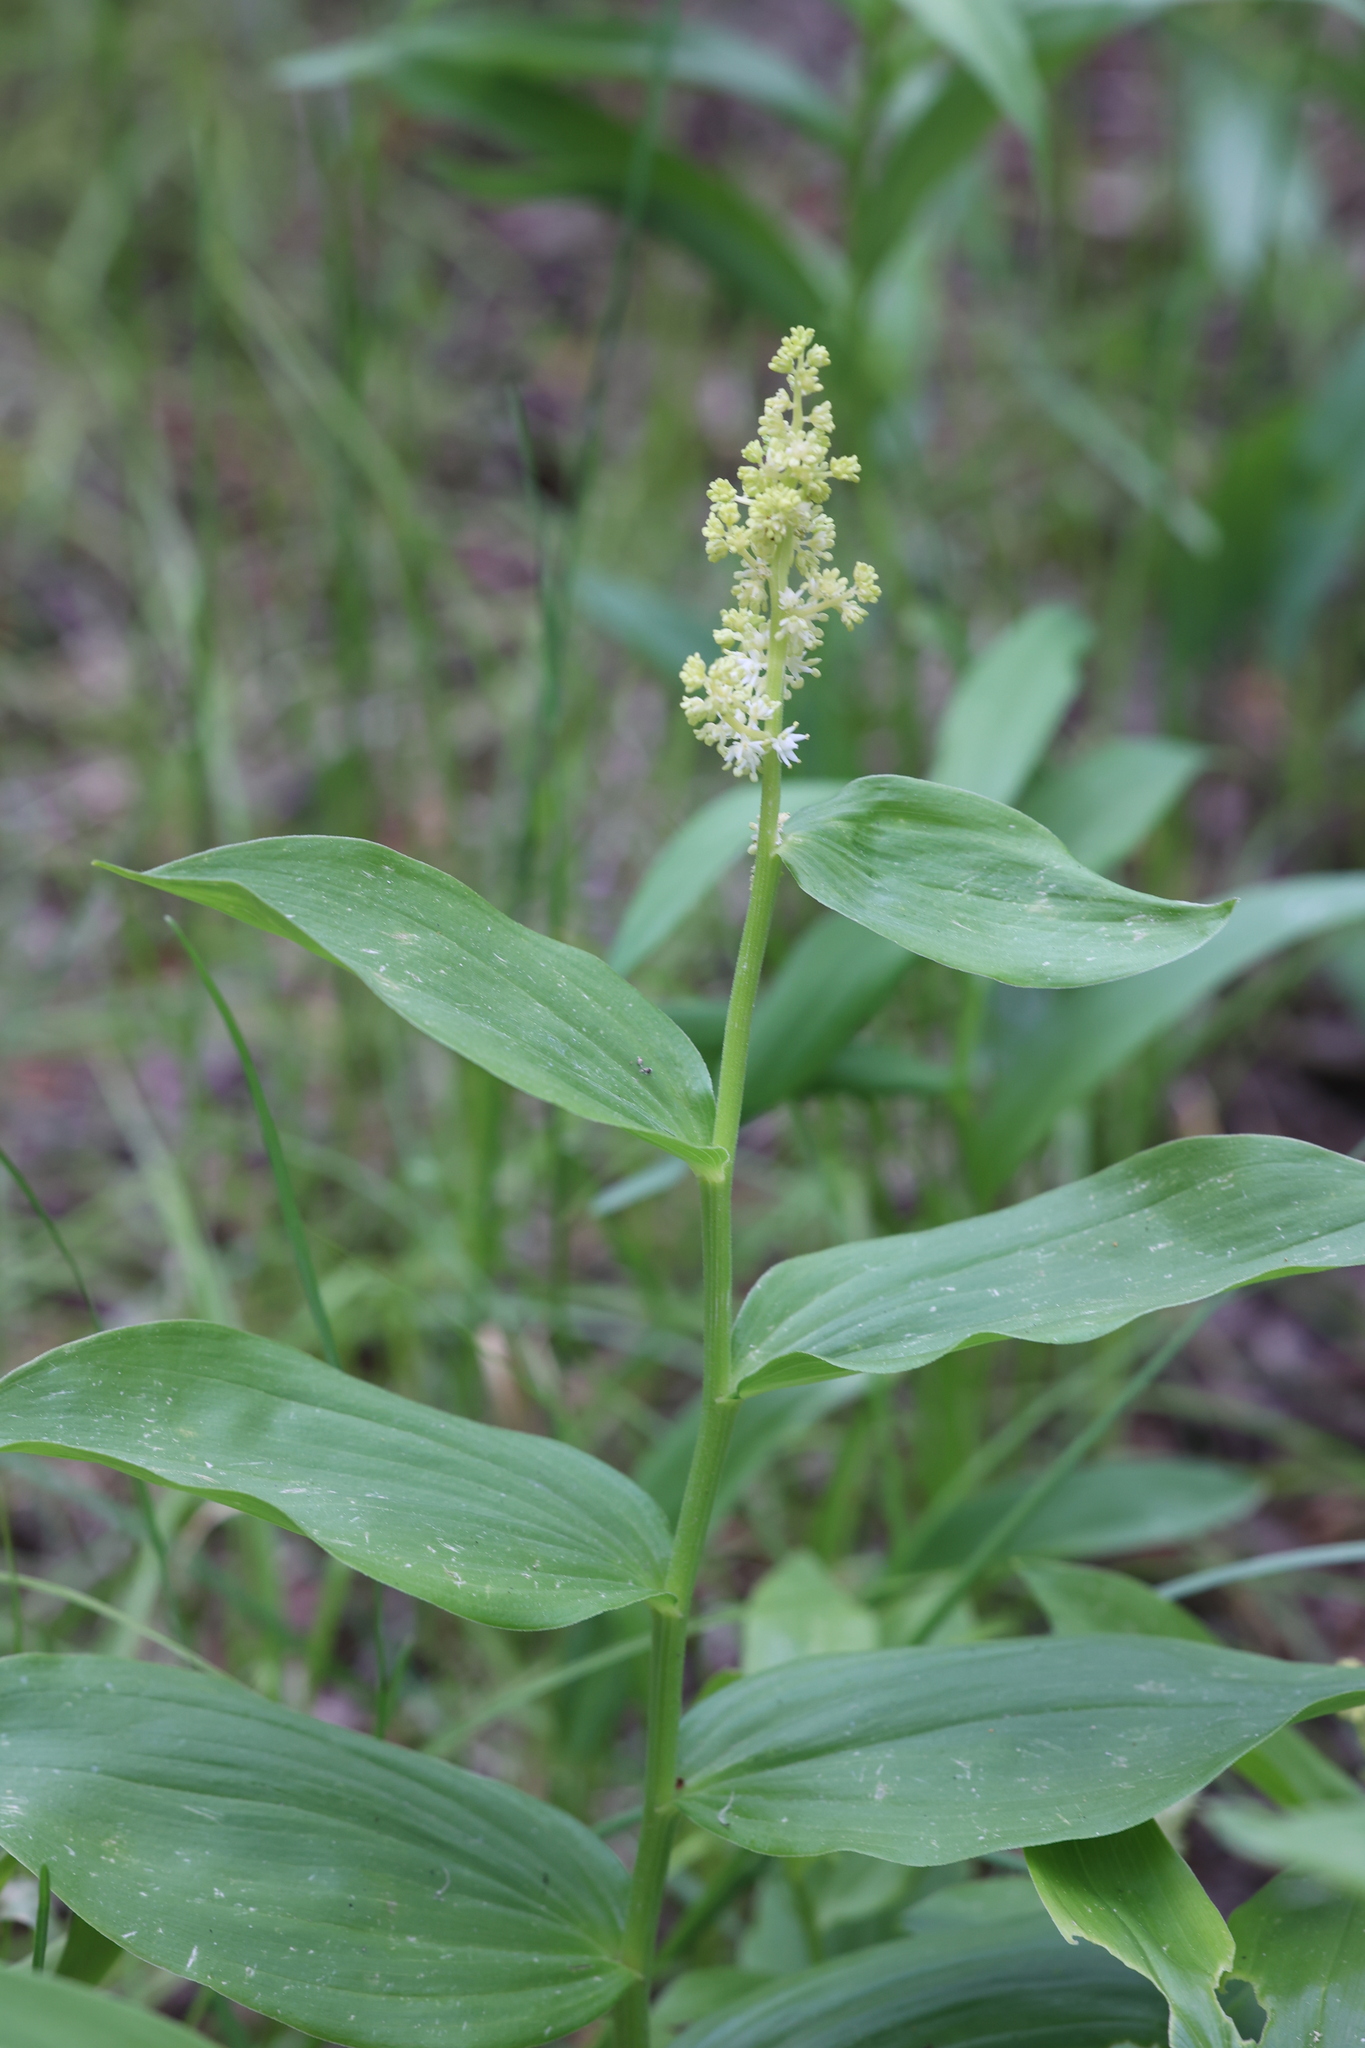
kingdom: Plantae
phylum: Tracheophyta
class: Liliopsida
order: Asparagales
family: Asparagaceae
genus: Maianthemum
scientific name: Maianthemum racemosum
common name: False spikenard
